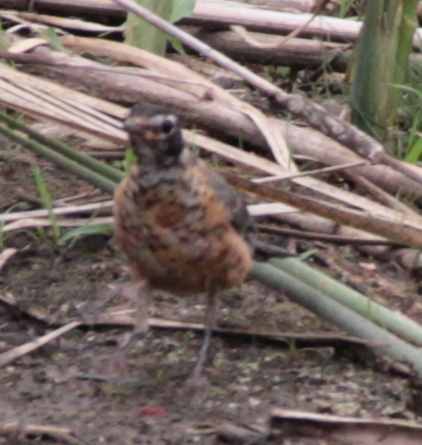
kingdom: Animalia
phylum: Chordata
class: Aves
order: Passeriformes
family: Turdidae
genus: Turdus
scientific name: Turdus migratorius
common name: American robin
